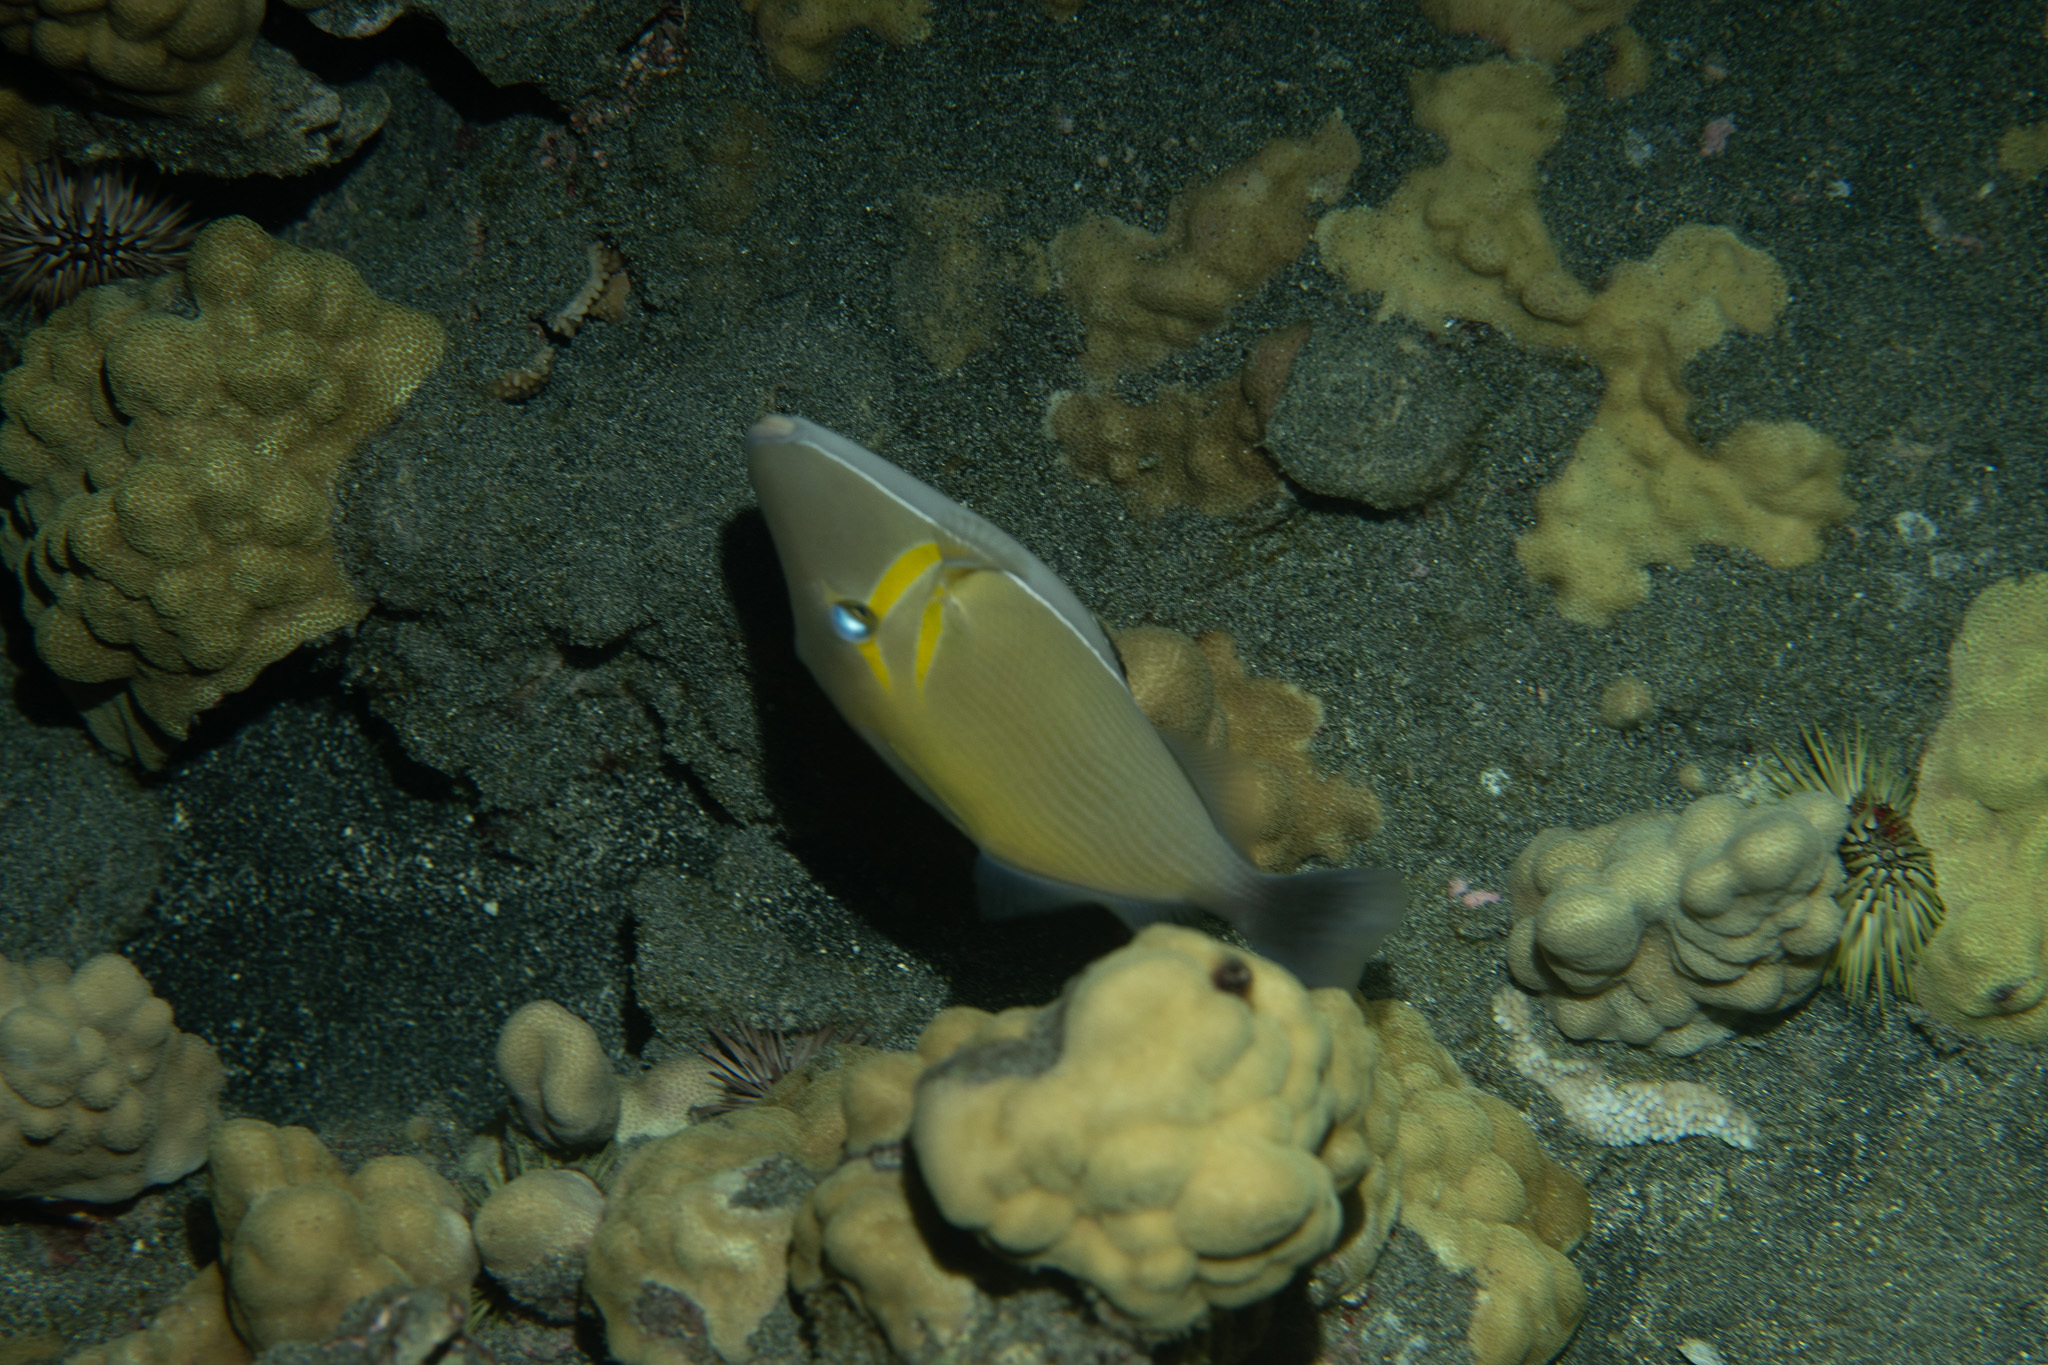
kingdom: Animalia
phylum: Chordata
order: Tetraodontiformes
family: Balistidae
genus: Sufflamen
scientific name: Sufflamen bursa
